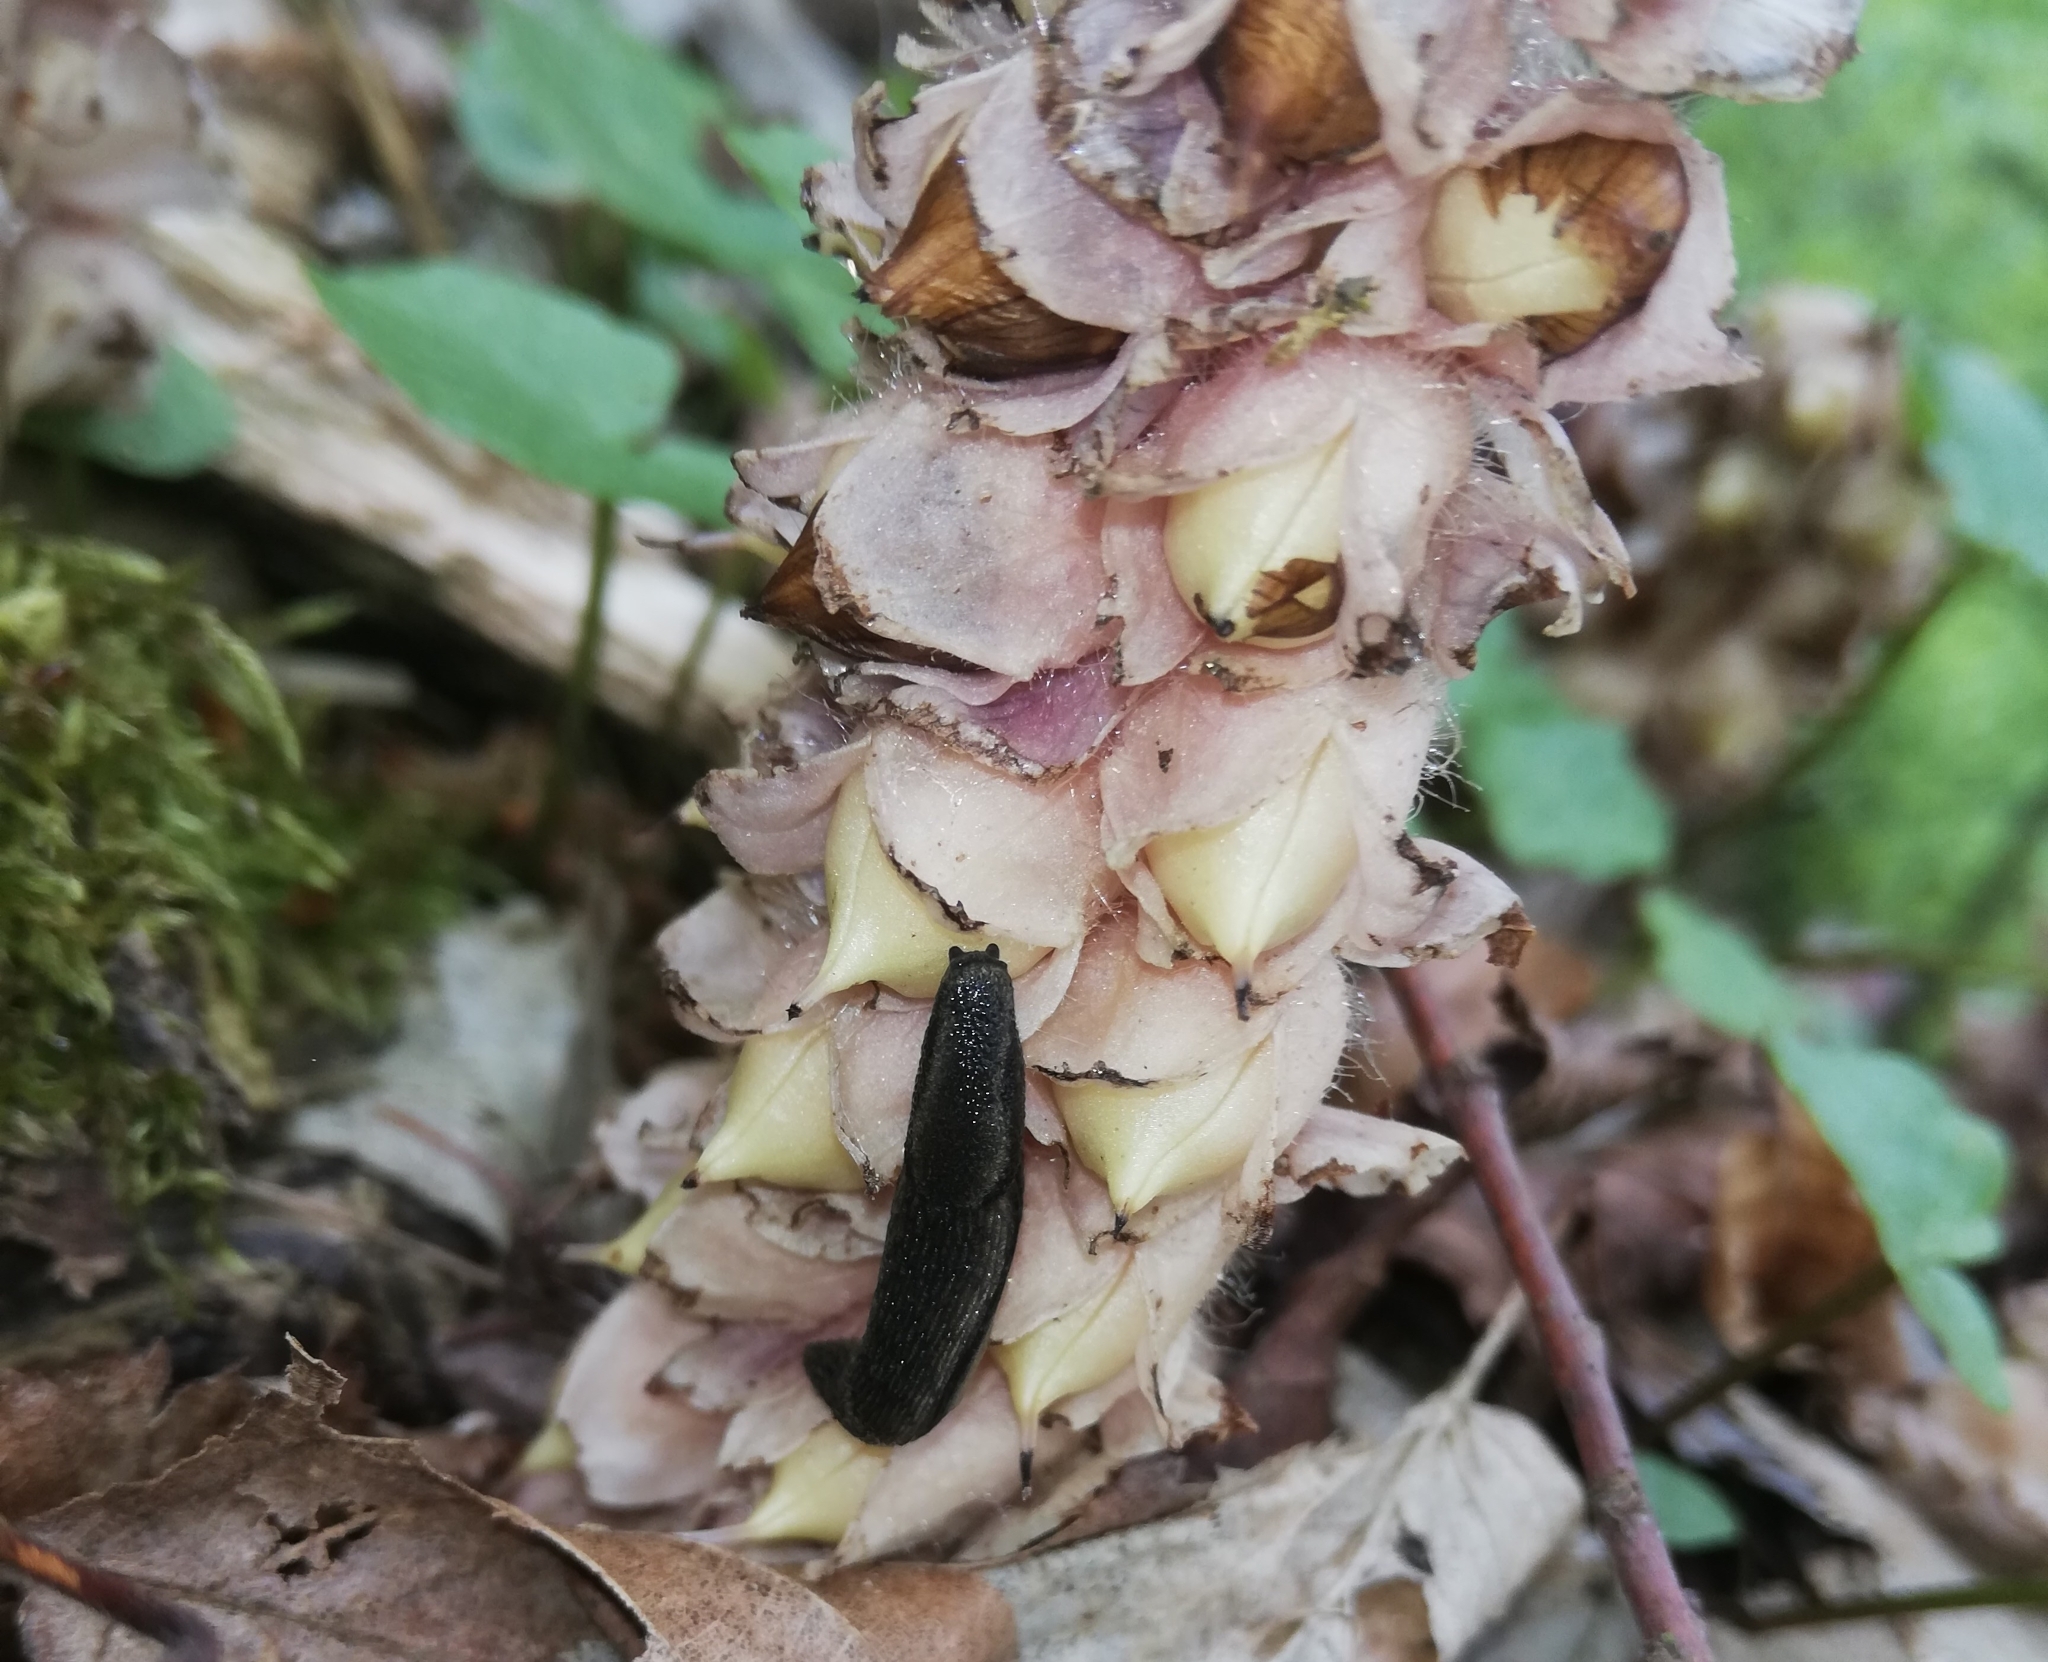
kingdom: Animalia
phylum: Mollusca
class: Gastropoda
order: Stylommatophora
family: Arionidae
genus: Kobeltia
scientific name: Kobeltia
